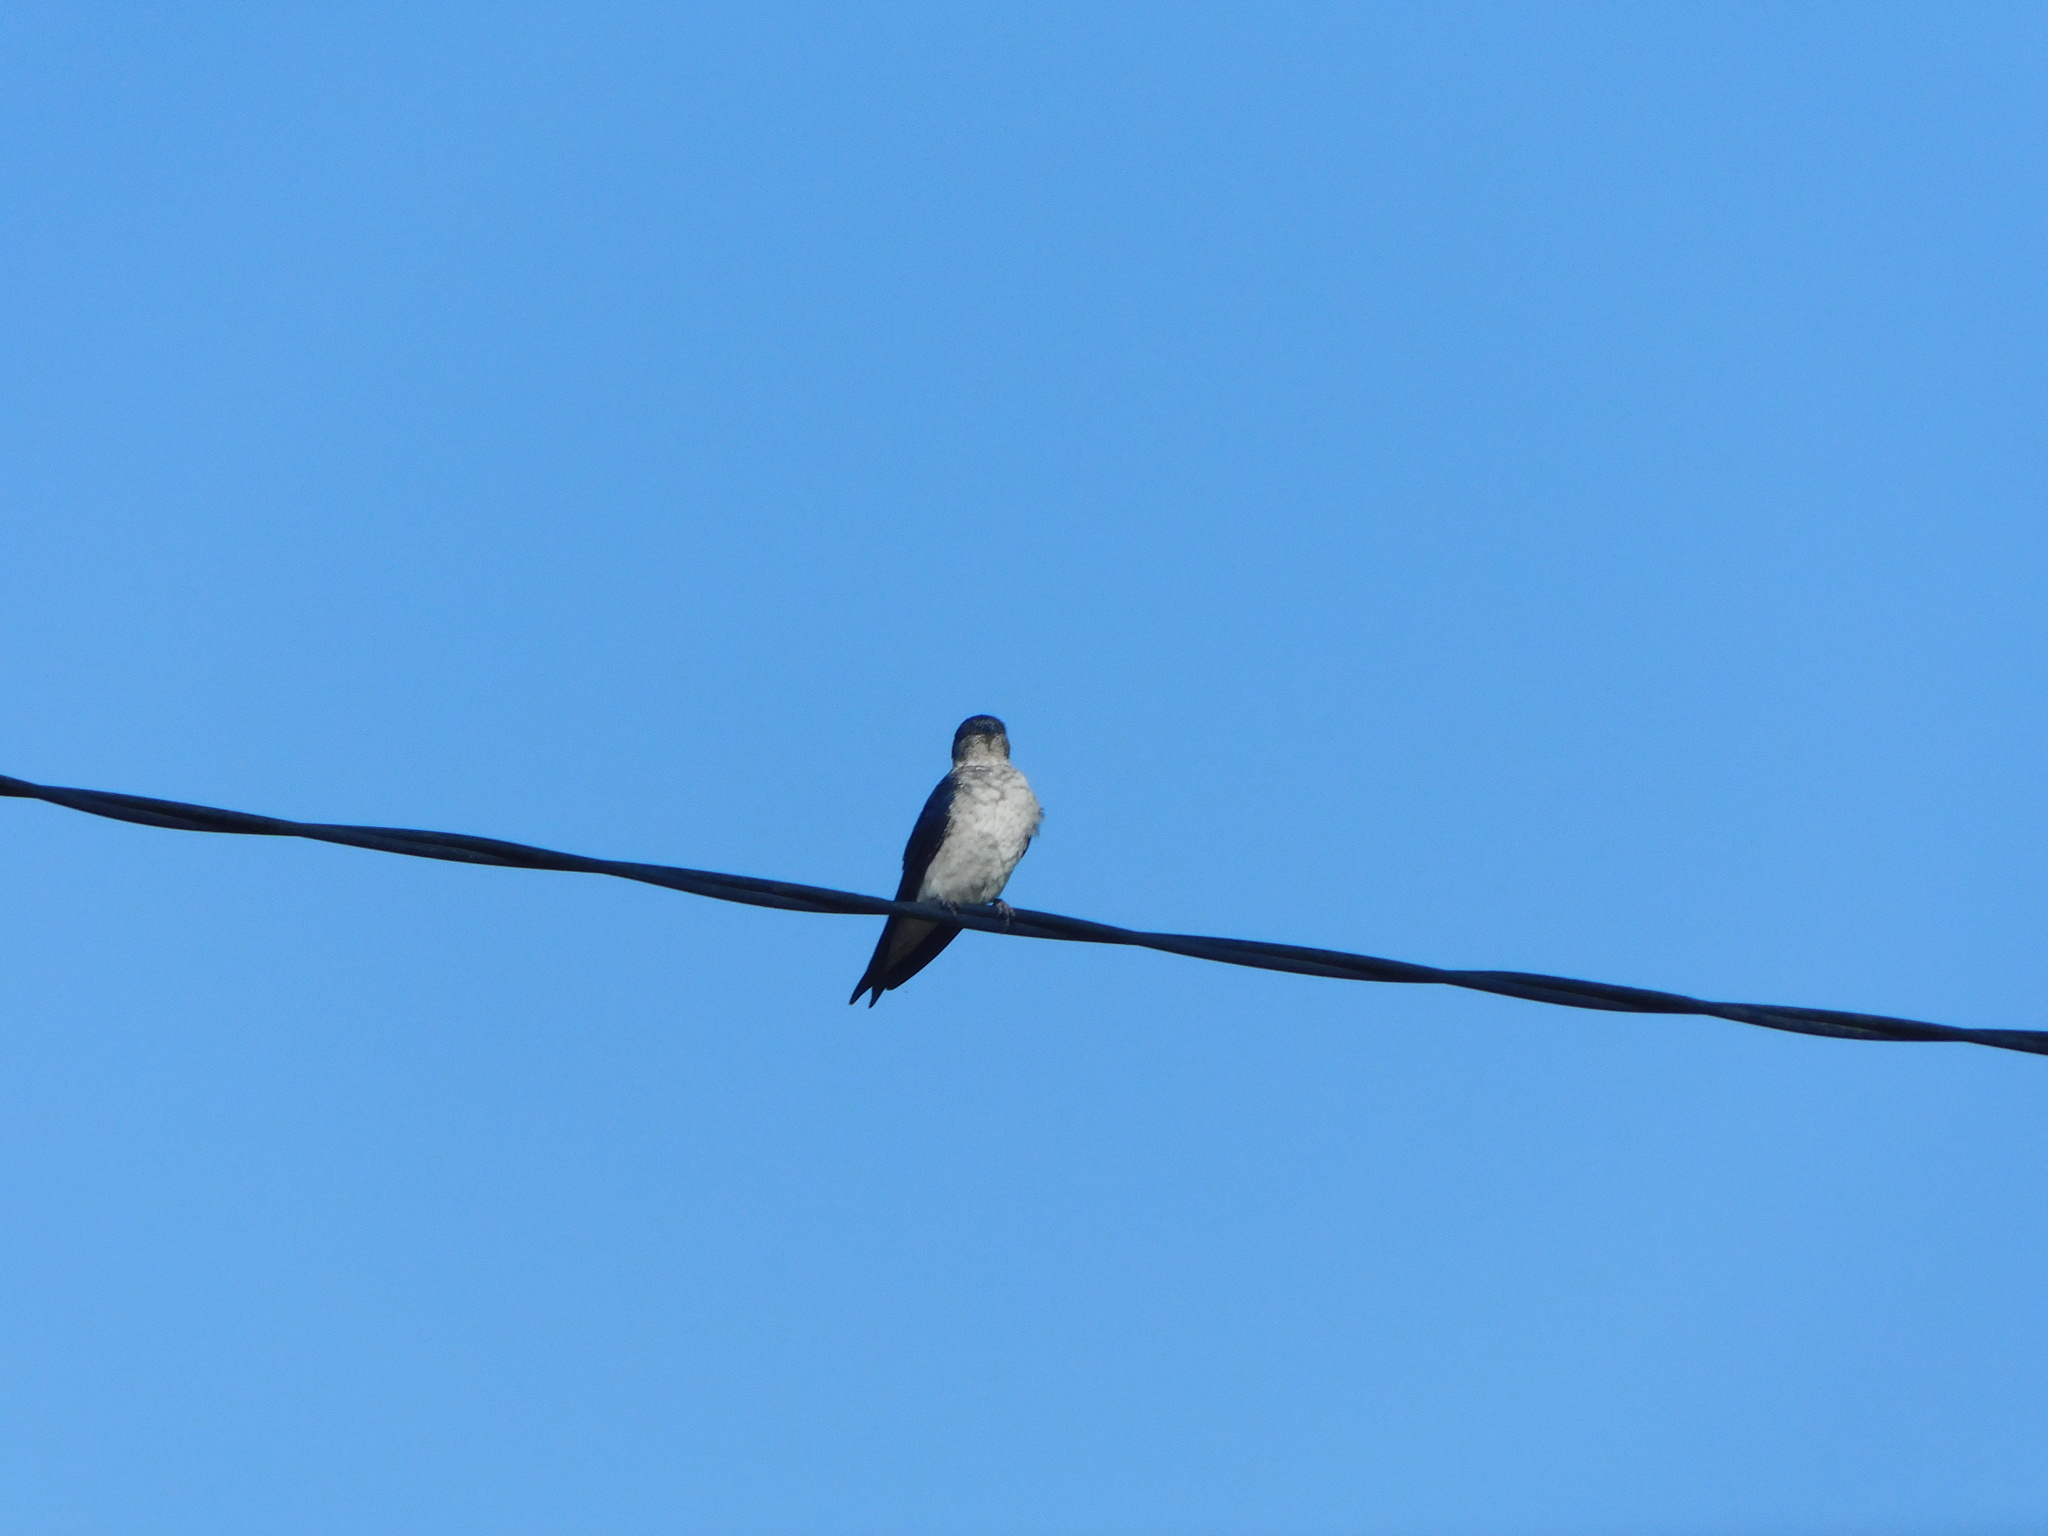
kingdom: Animalia
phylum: Chordata
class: Aves
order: Passeriformes
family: Hirundinidae
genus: Progne
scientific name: Progne chalybea
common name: Grey-breasted martin
